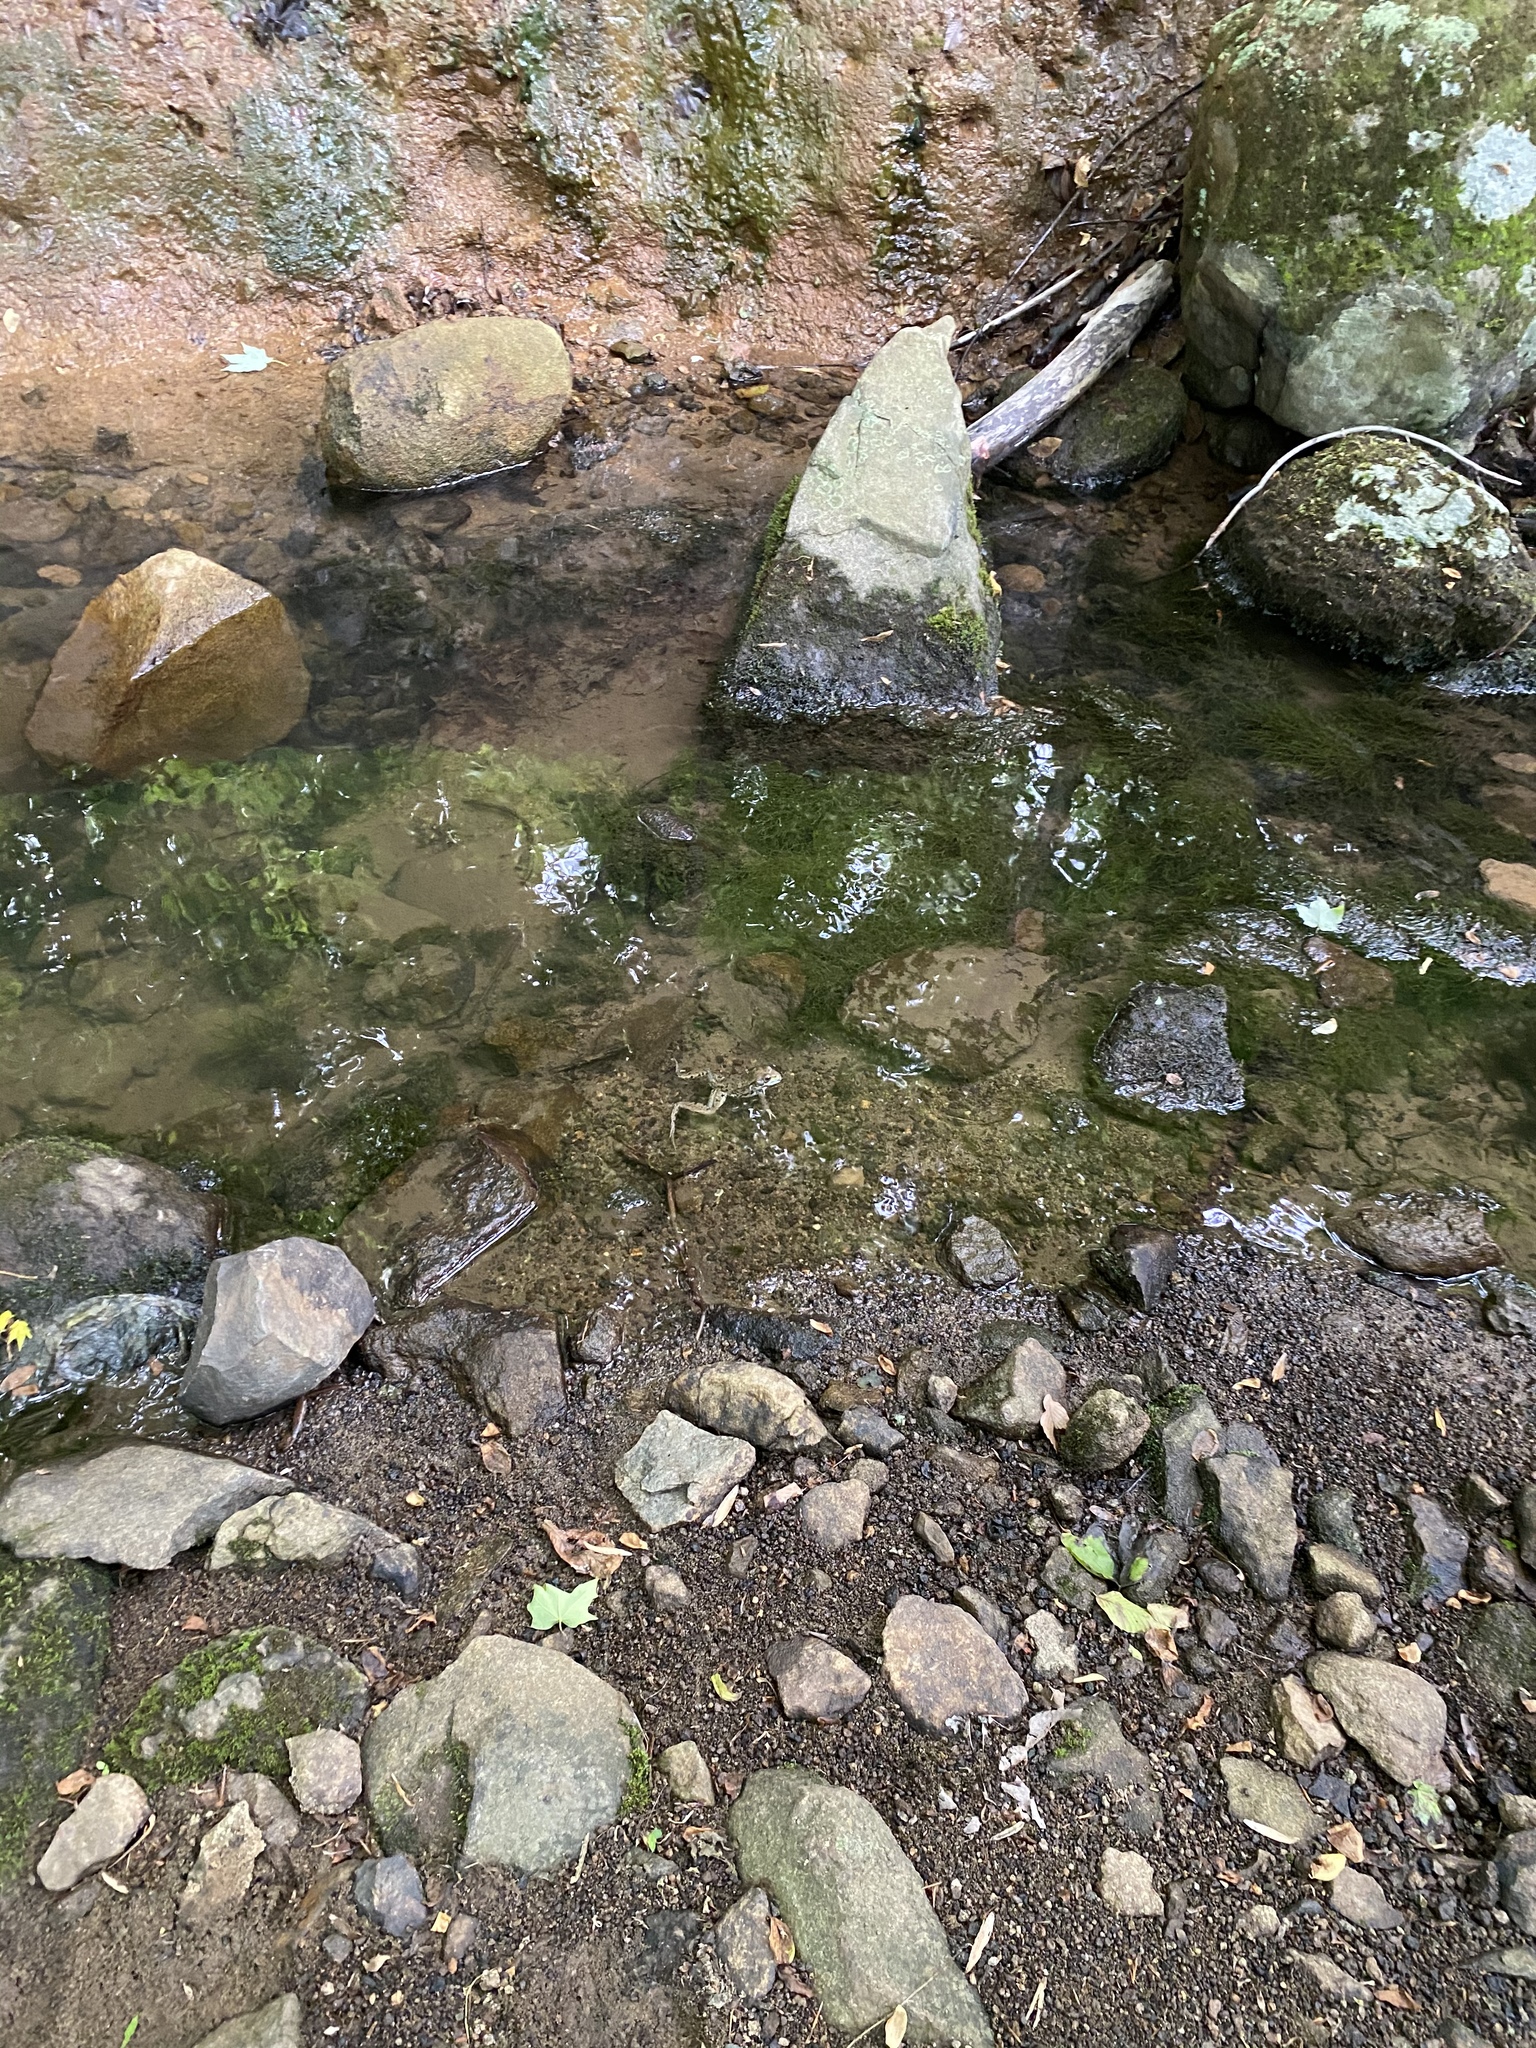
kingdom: Animalia
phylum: Chordata
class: Amphibia
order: Anura
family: Ranidae
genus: Lithobates
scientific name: Lithobates clamitans
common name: Green frog
